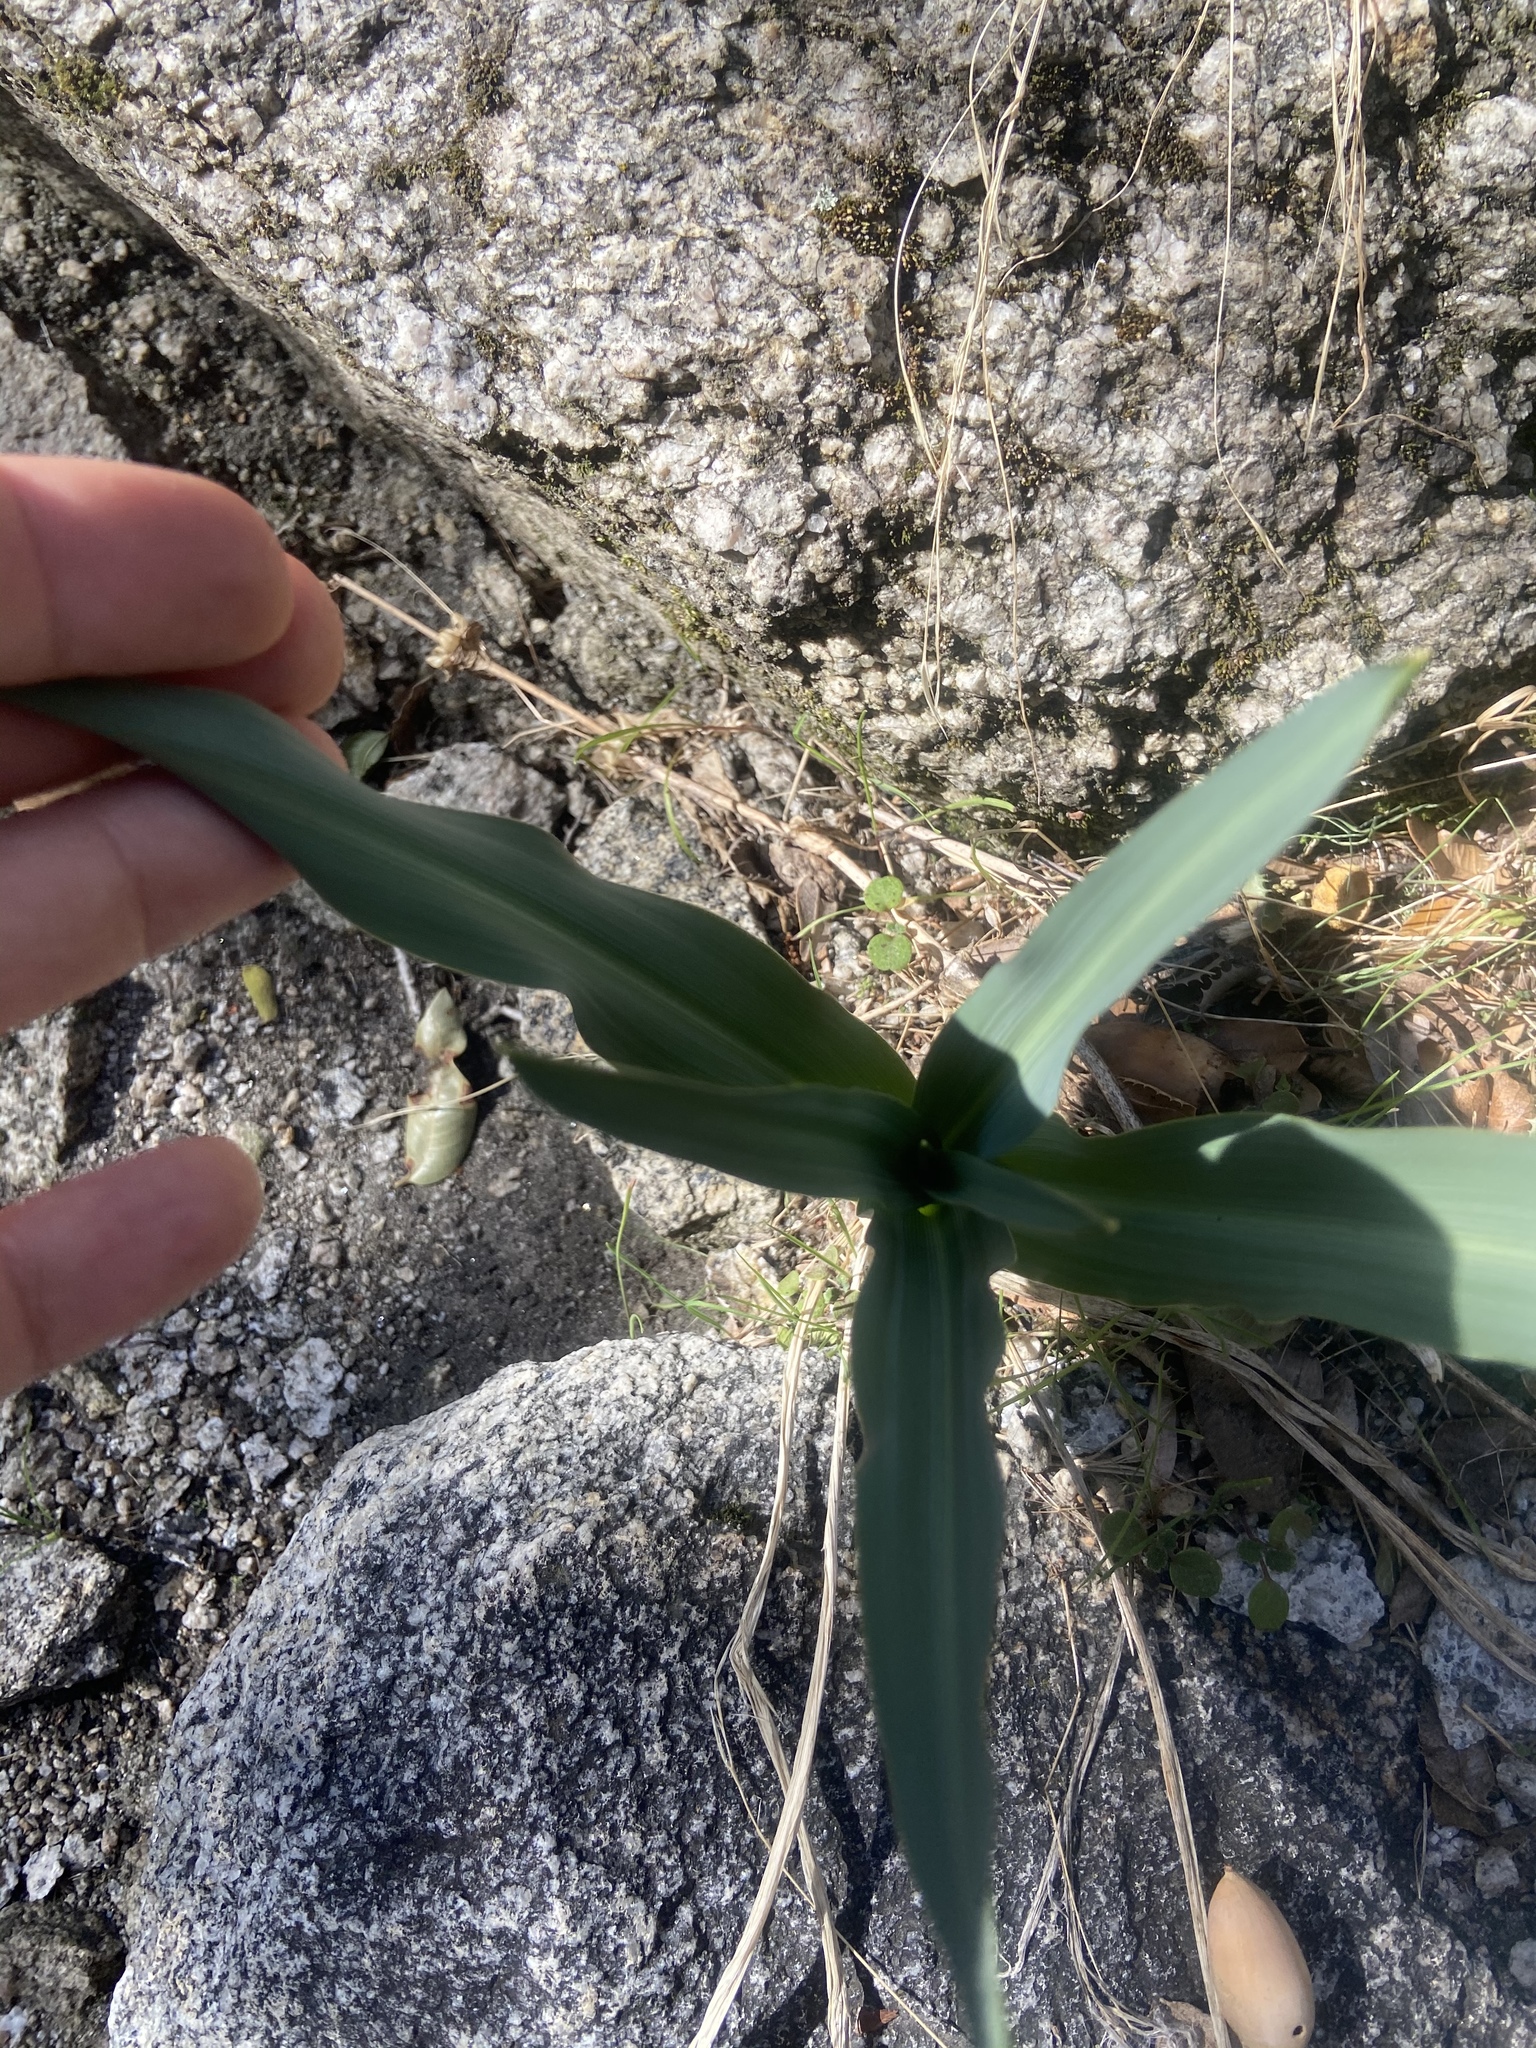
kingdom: Plantae
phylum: Tracheophyta
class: Liliopsida
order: Asparagales
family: Asparagaceae
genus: Chlorogalum
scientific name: Chlorogalum pomeridianum
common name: Amole
